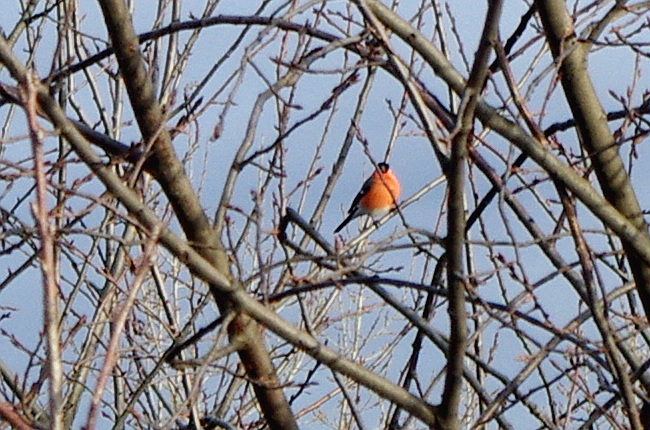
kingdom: Animalia
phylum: Chordata
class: Aves
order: Passeriformes
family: Fringillidae
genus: Pyrrhula
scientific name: Pyrrhula pyrrhula
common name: Eurasian bullfinch
